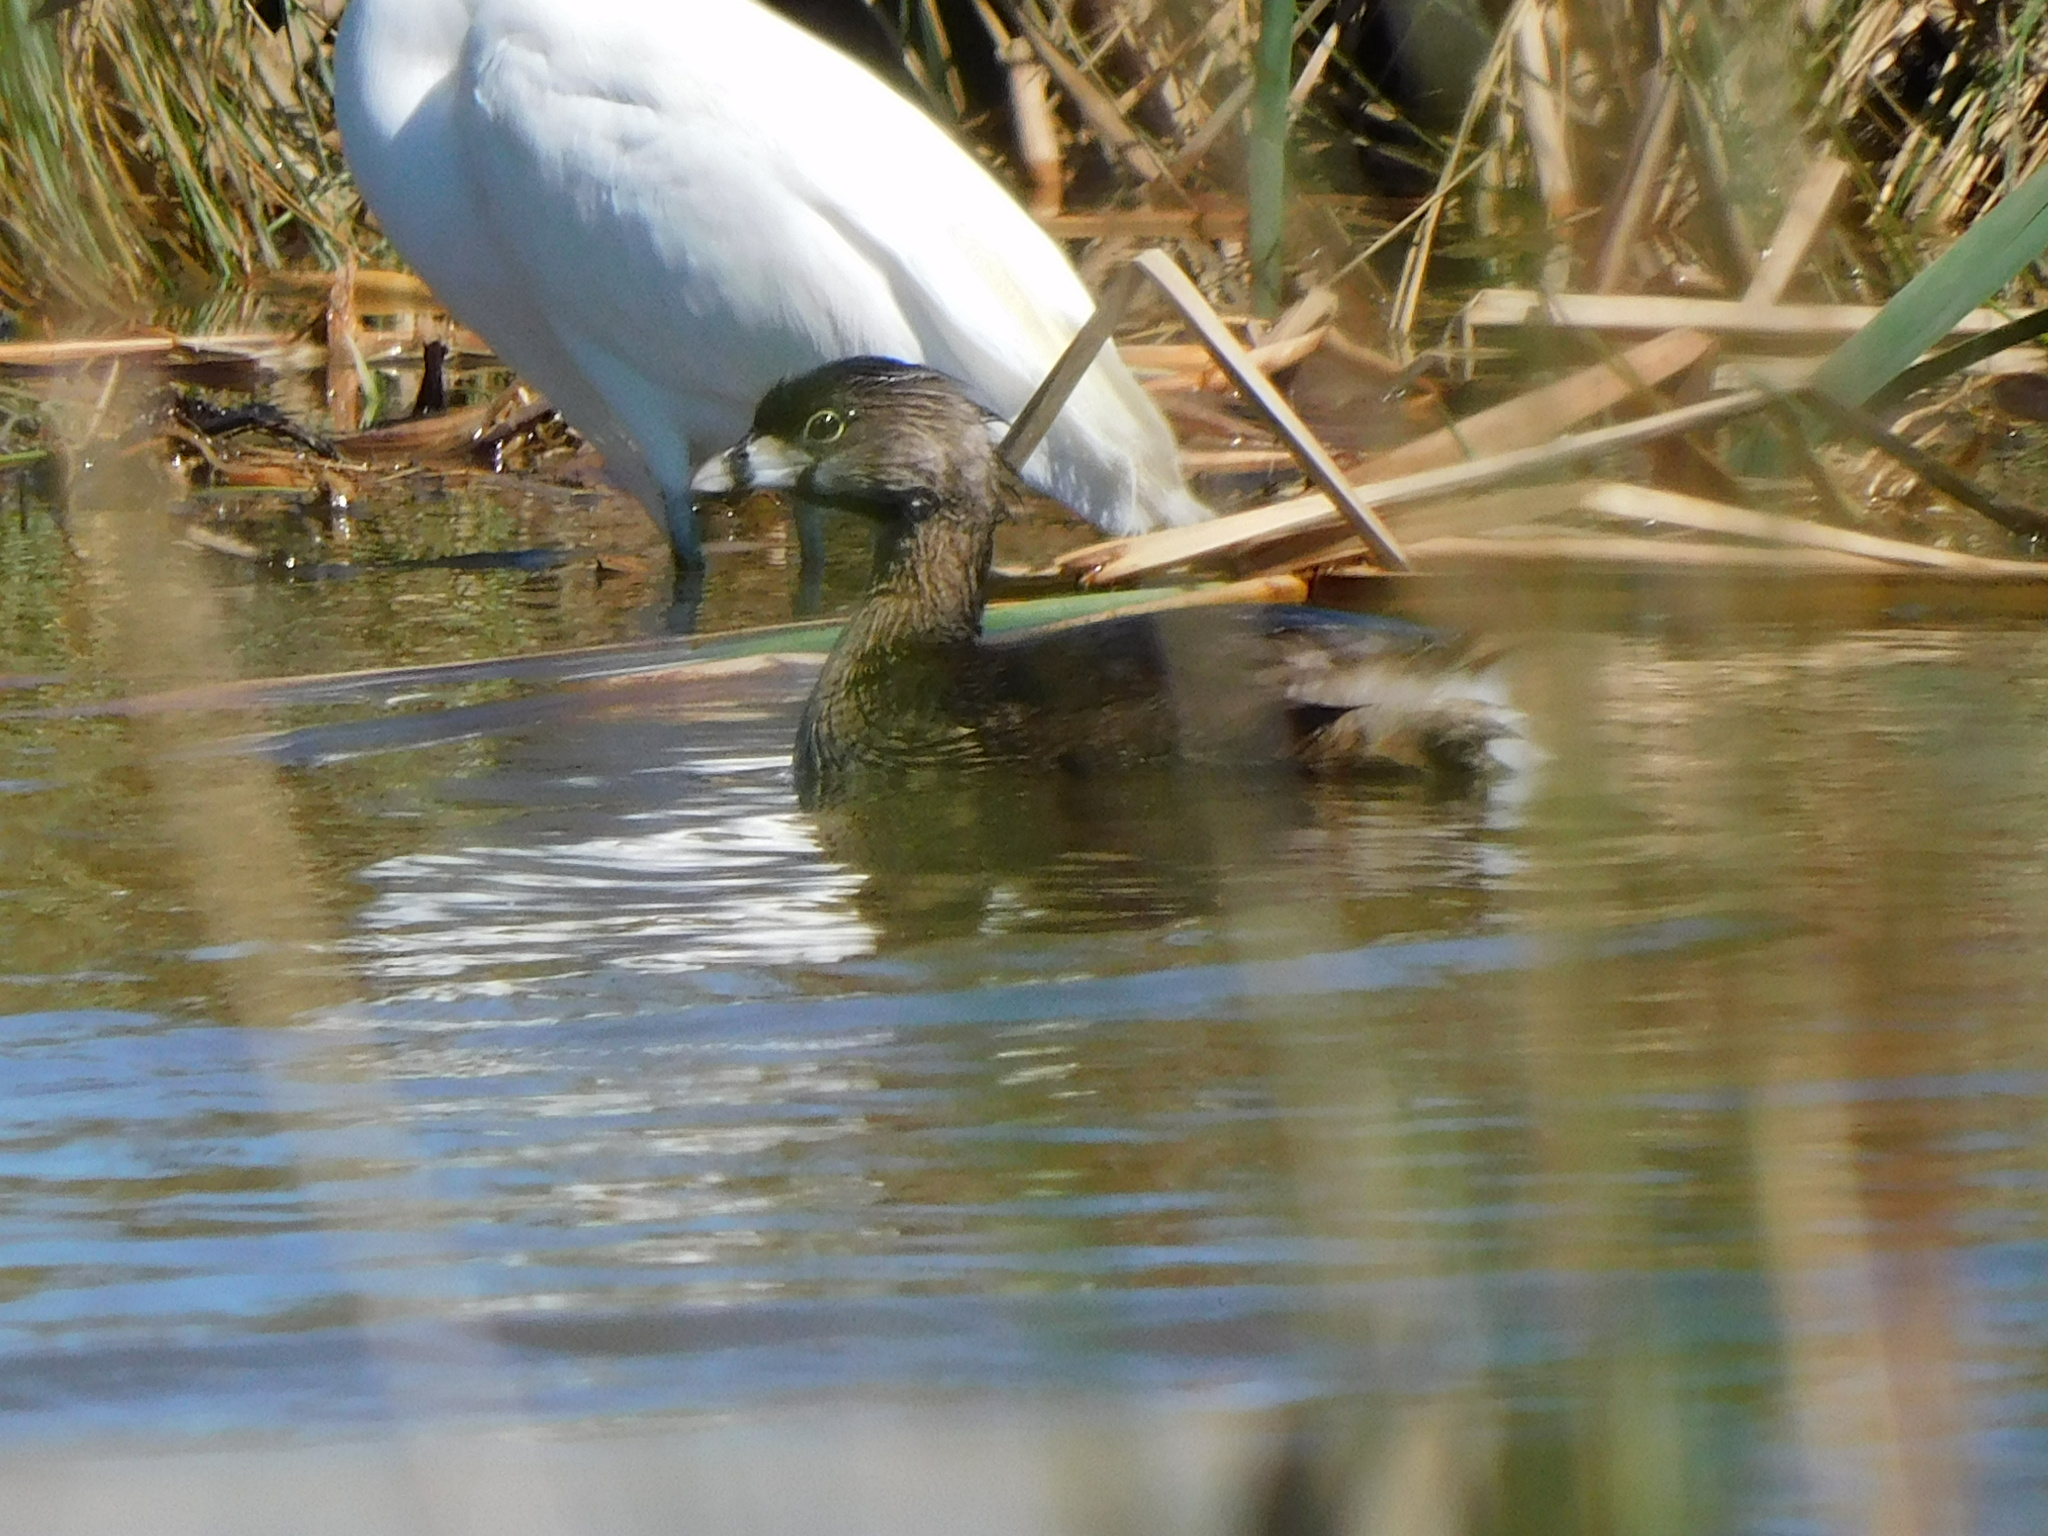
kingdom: Animalia
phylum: Chordata
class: Aves
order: Podicipediformes
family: Podicipedidae
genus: Podilymbus
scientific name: Podilymbus podiceps
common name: Pied-billed grebe
